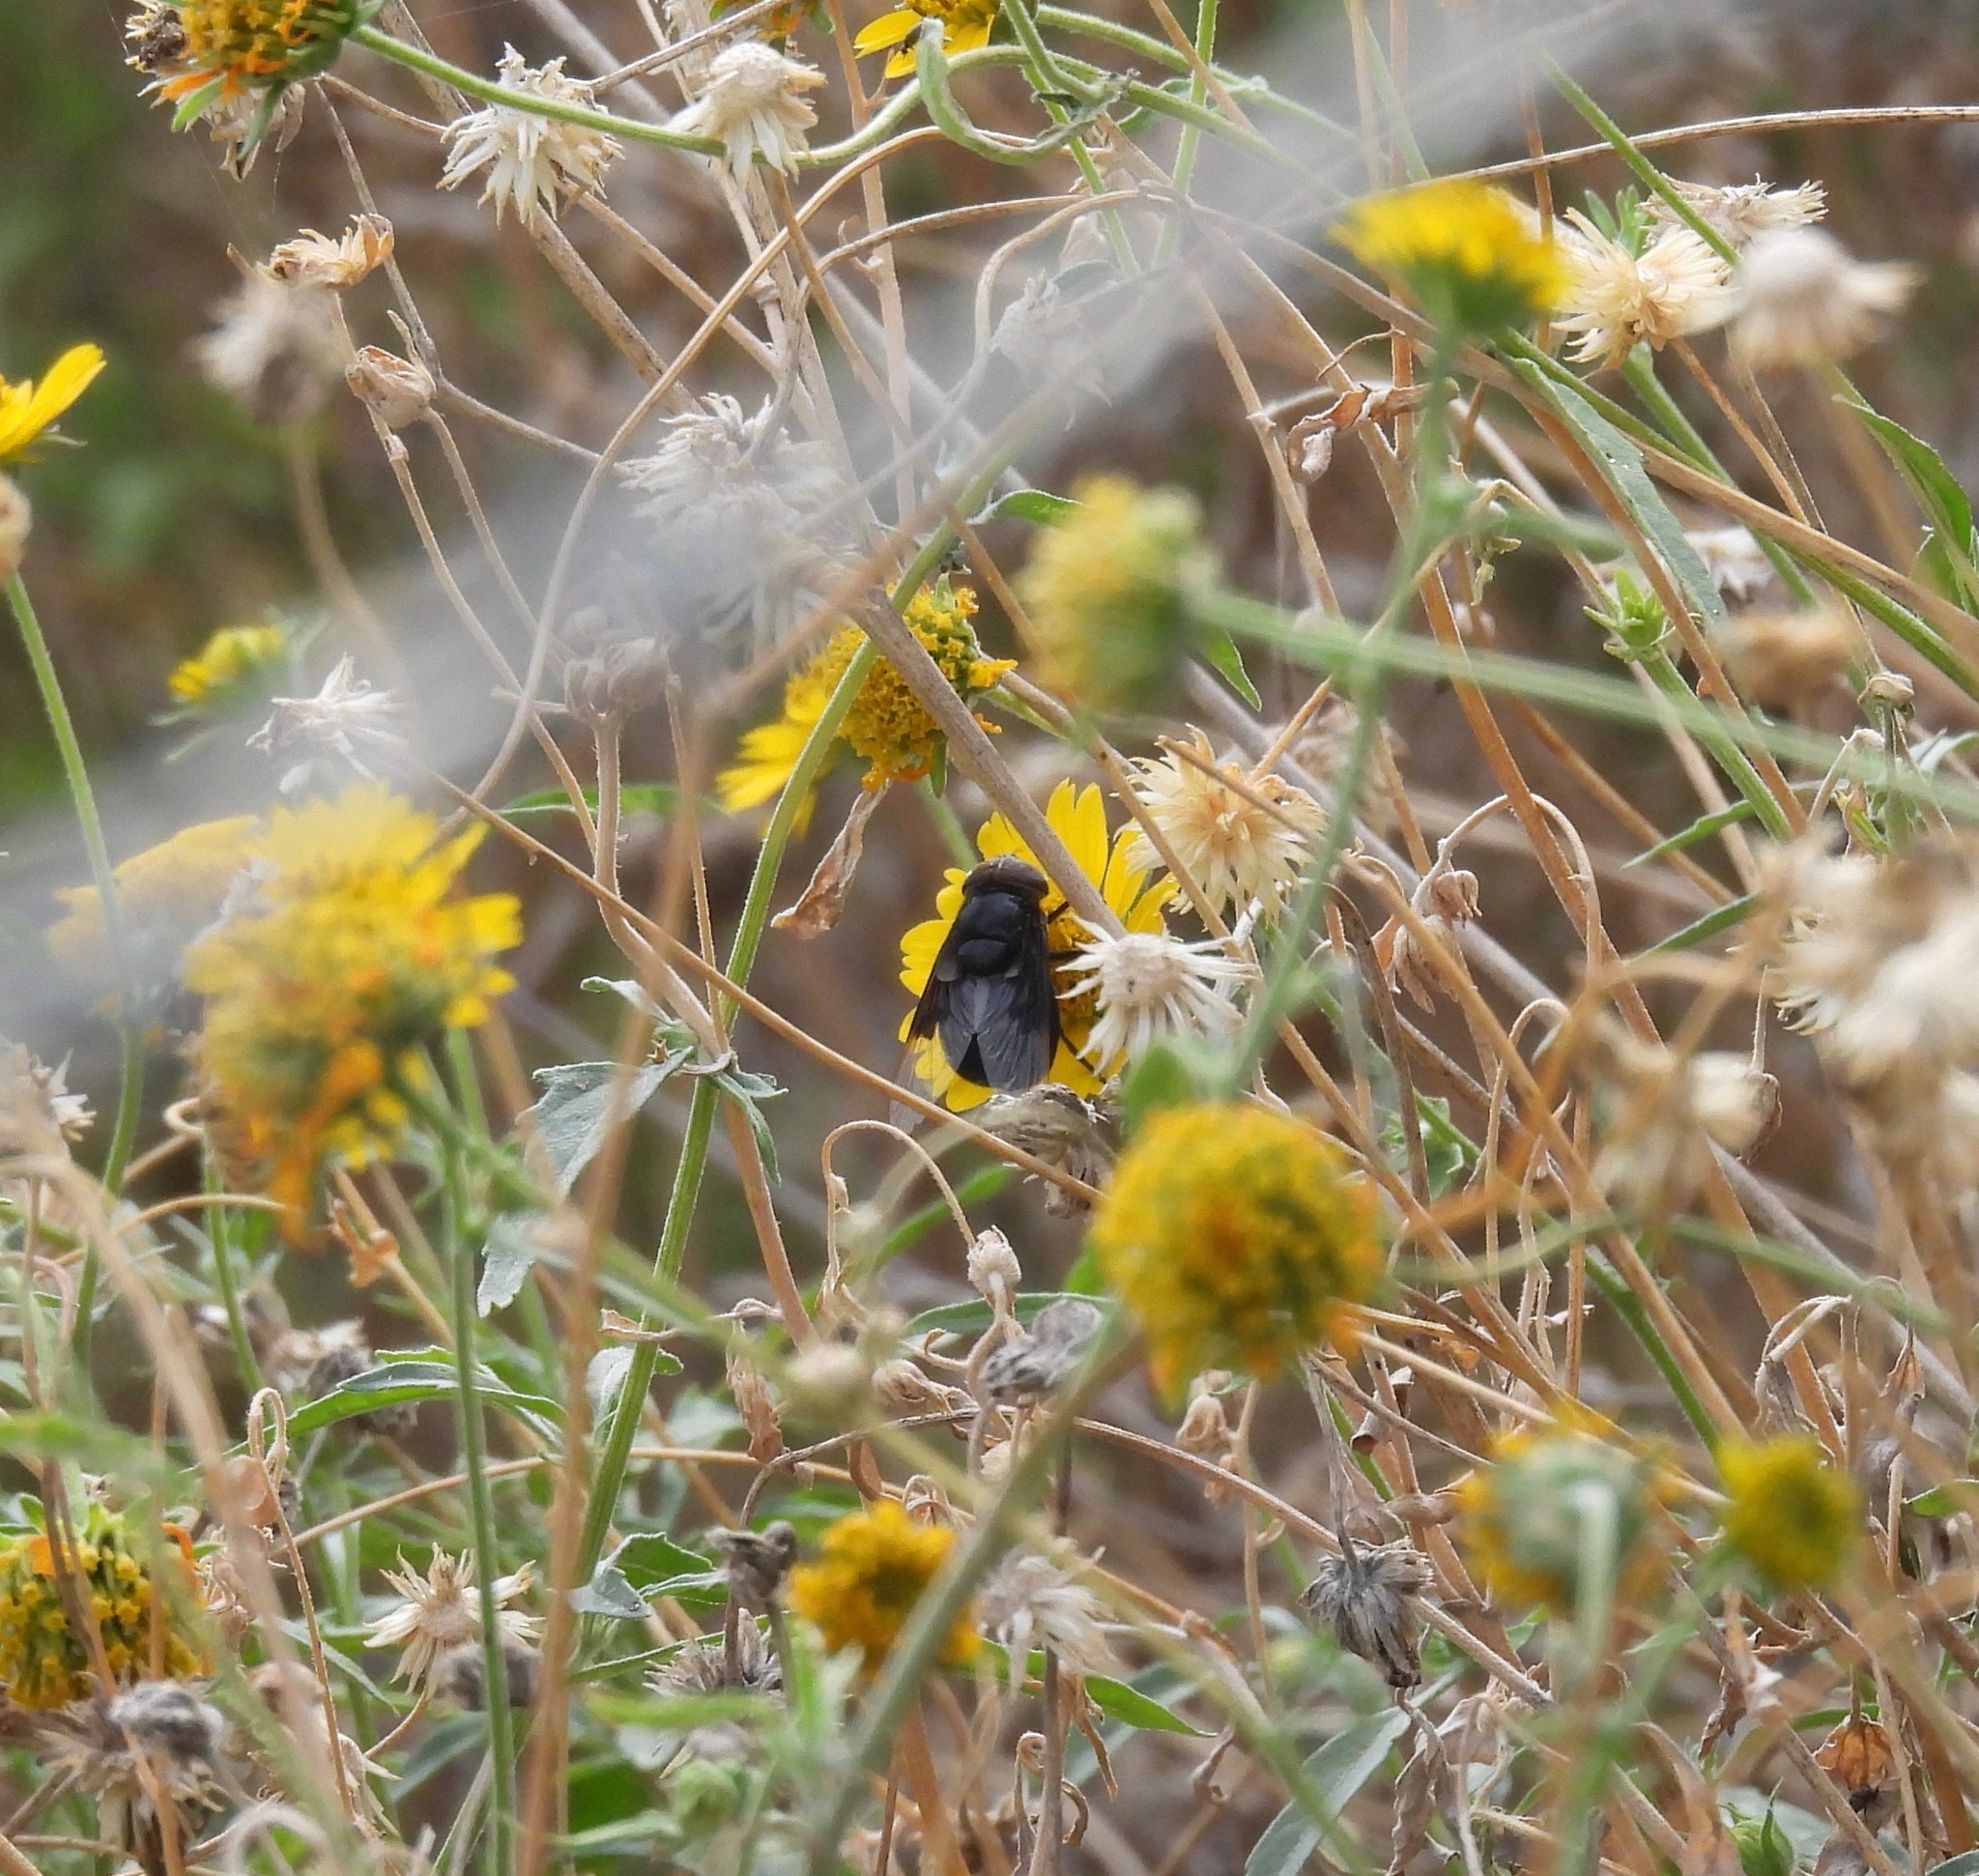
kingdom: Animalia
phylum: Arthropoda
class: Insecta
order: Diptera
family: Syrphidae
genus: Copestylum
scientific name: Copestylum mexicanum
